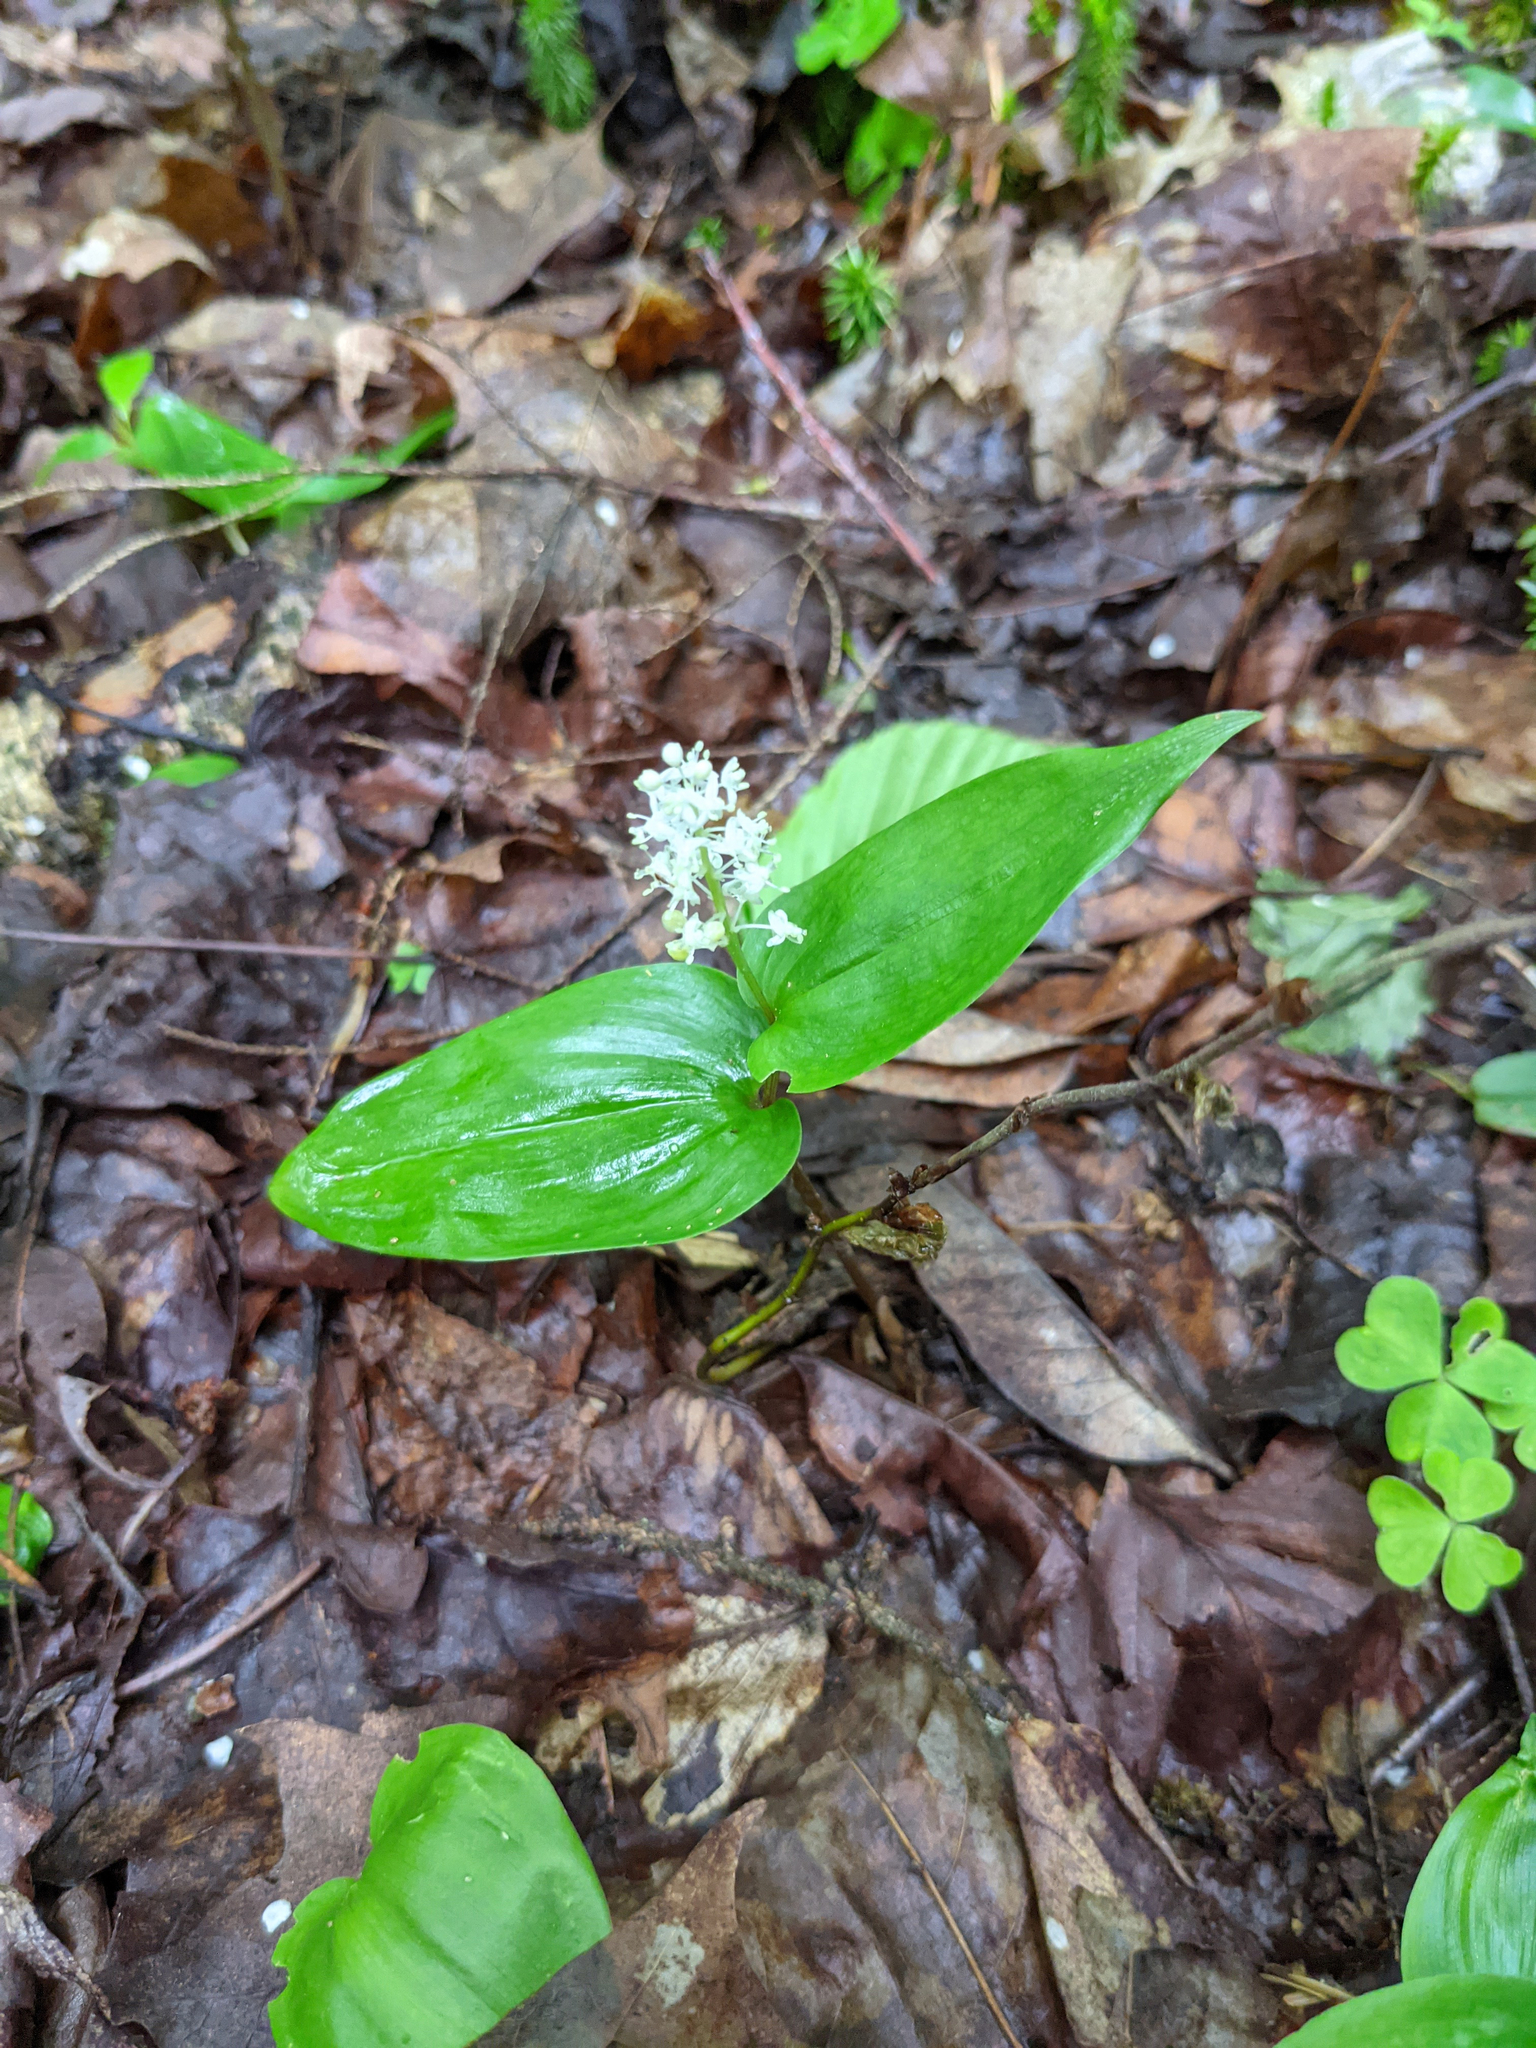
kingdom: Plantae
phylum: Tracheophyta
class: Liliopsida
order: Asparagales
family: Asparagaceae
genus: Maianthemum
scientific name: Maianthemum canadense
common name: False lily-of-the-valley
